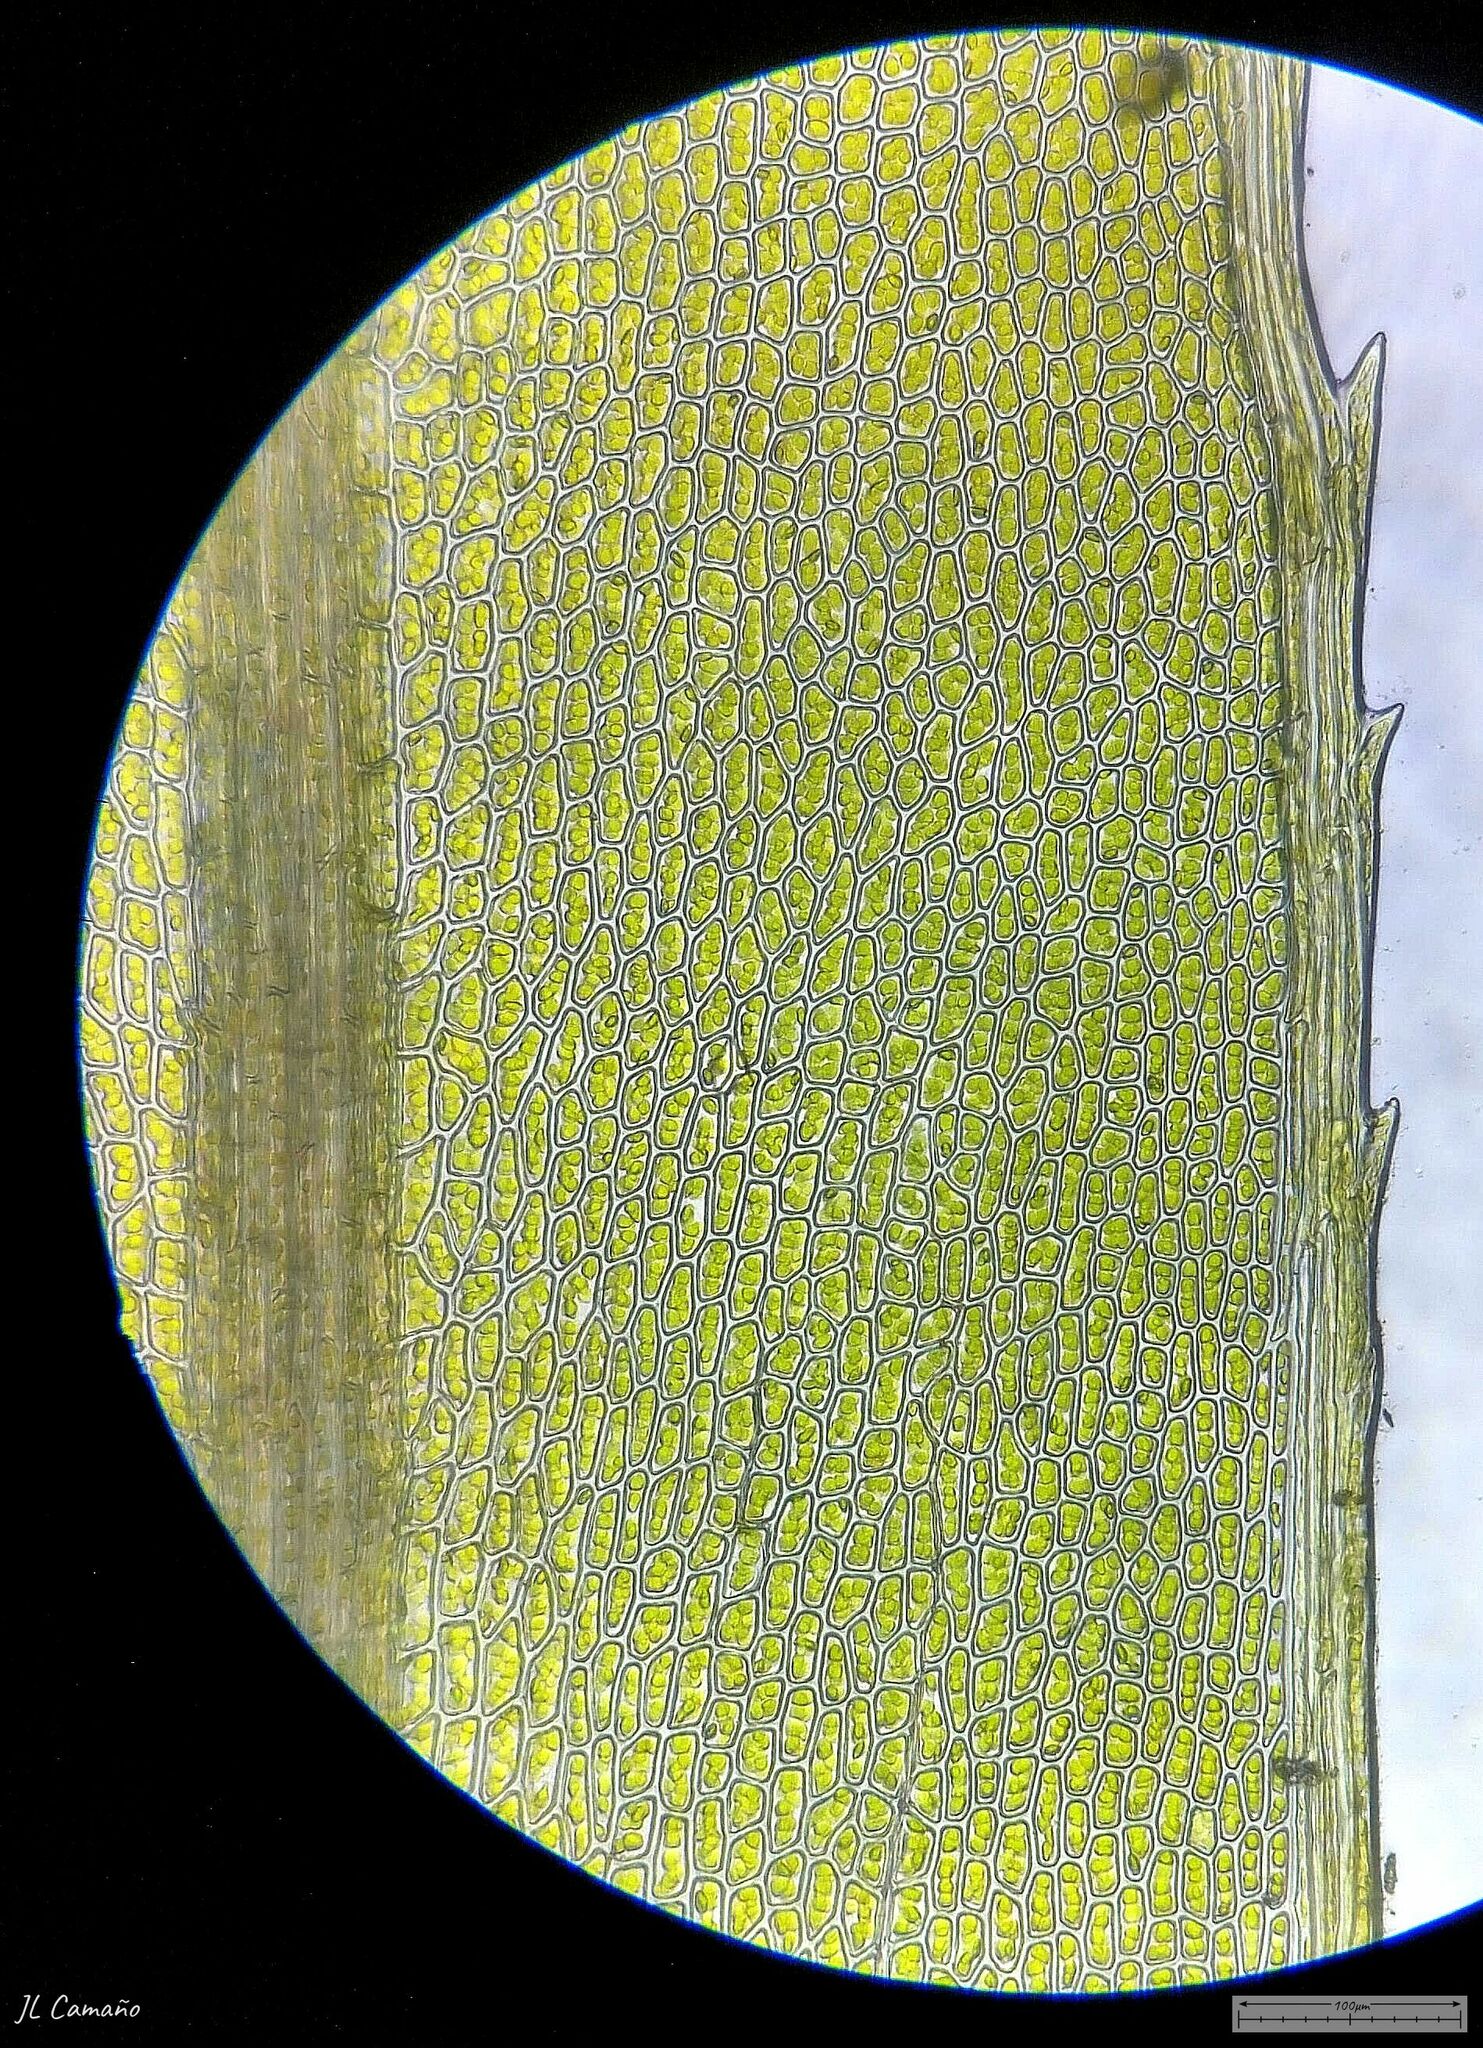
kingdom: Plantae
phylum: Bryophyta
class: Bryopsida
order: Bryales
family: Mniaceae
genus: Mnium
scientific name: Mnium hornum
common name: Swan's-neck leafy moss
